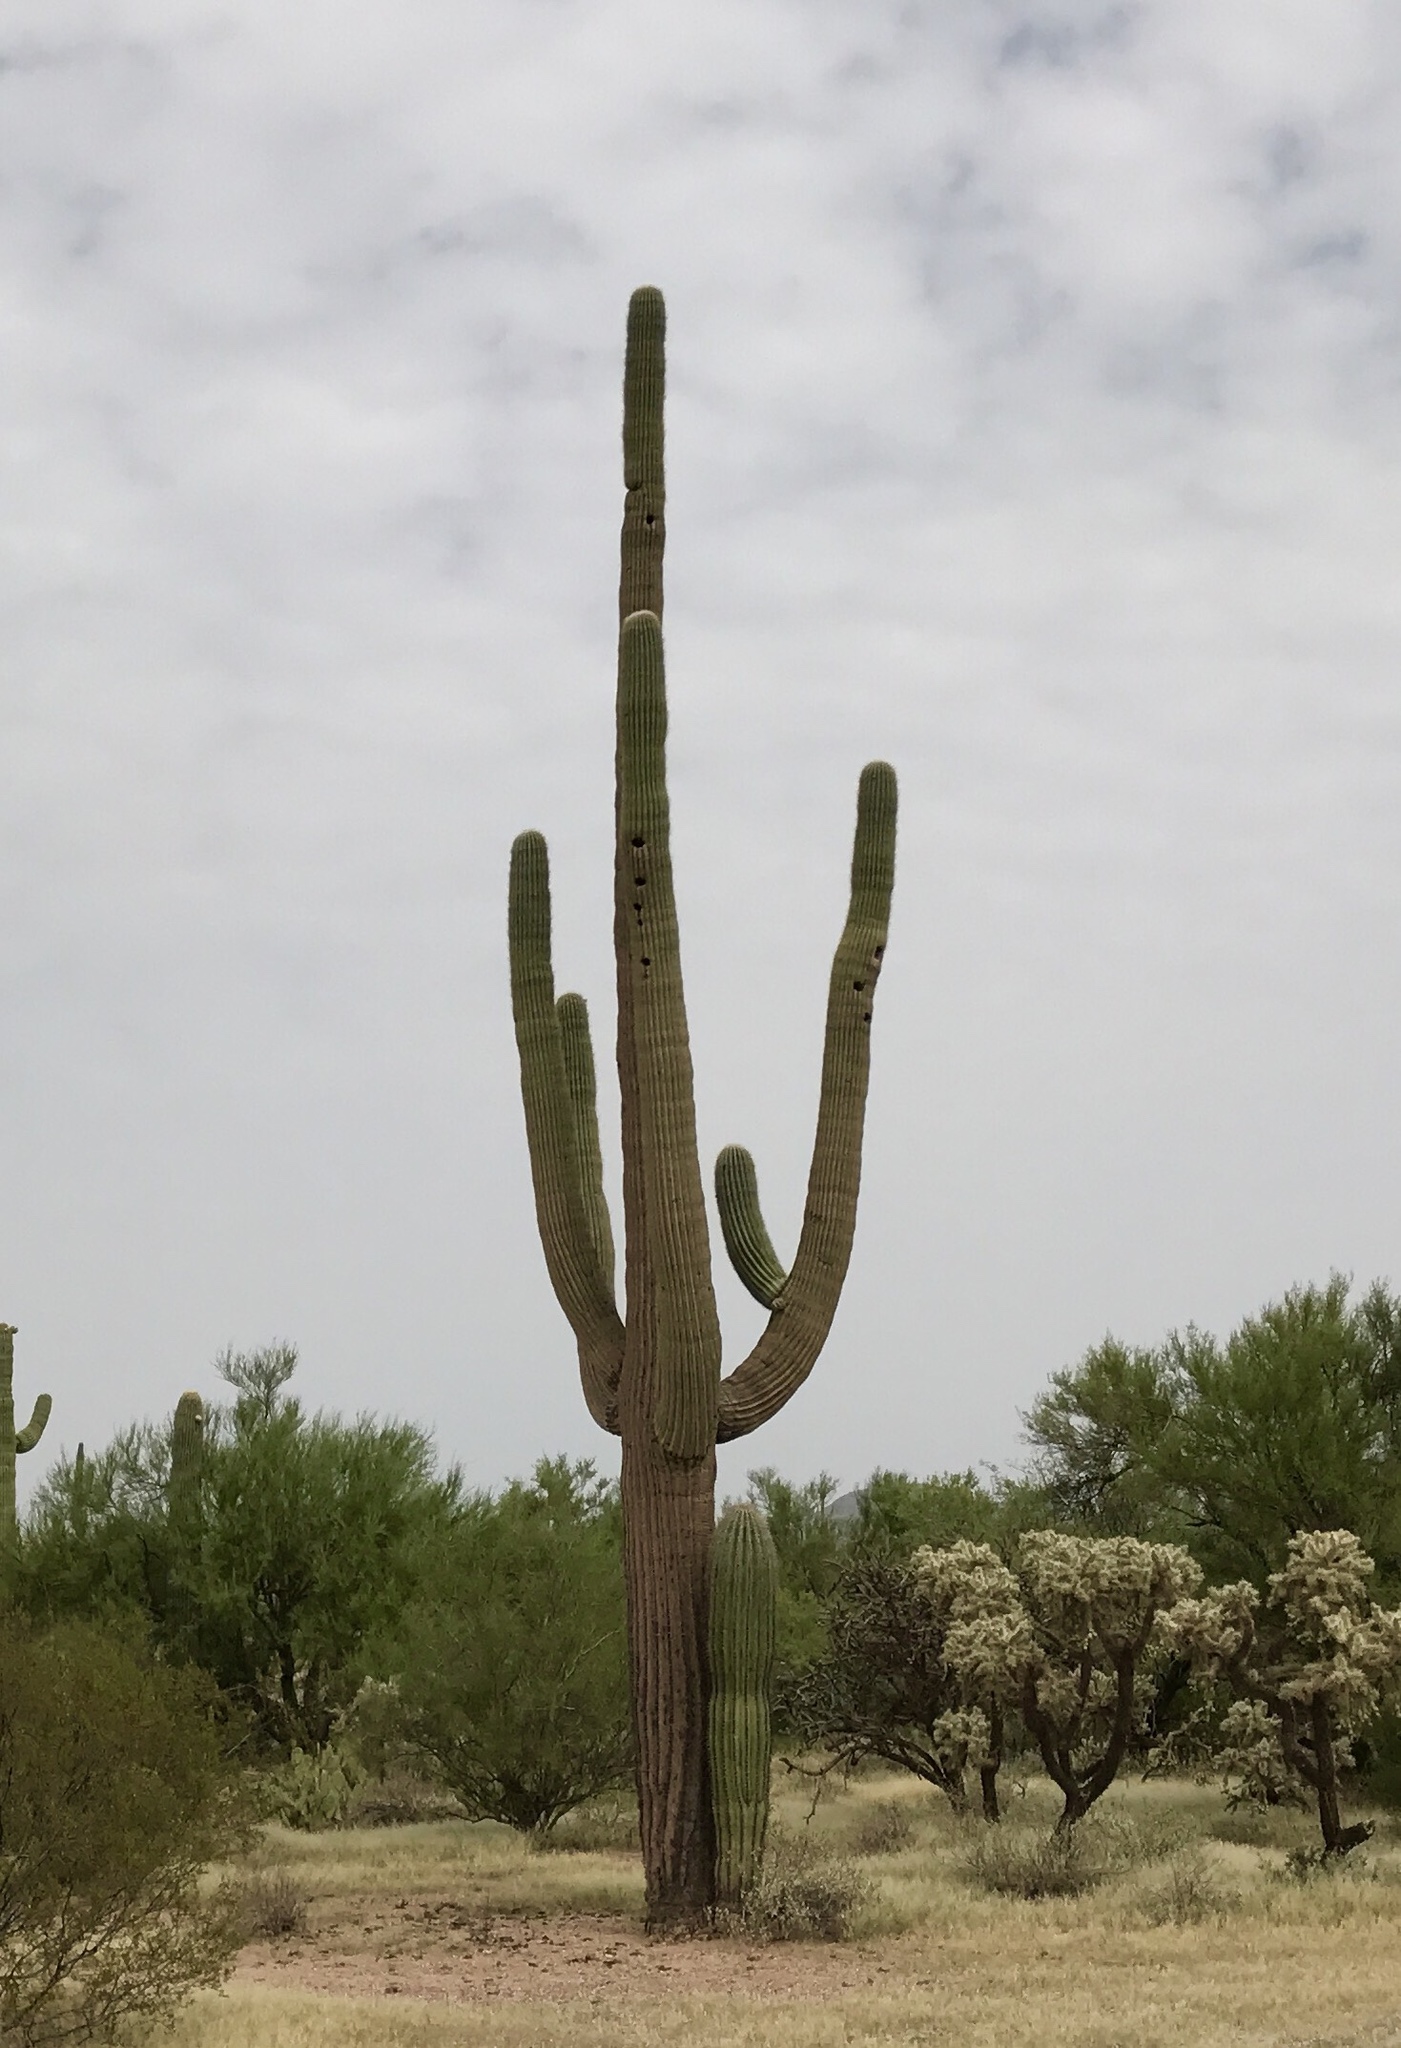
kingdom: Plantae
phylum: Tracheophyta
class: Magnoliopsida
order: Caryophyllales
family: Cactaceae
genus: Carnegiea
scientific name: Carnegiea gigantea
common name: Saguaro
